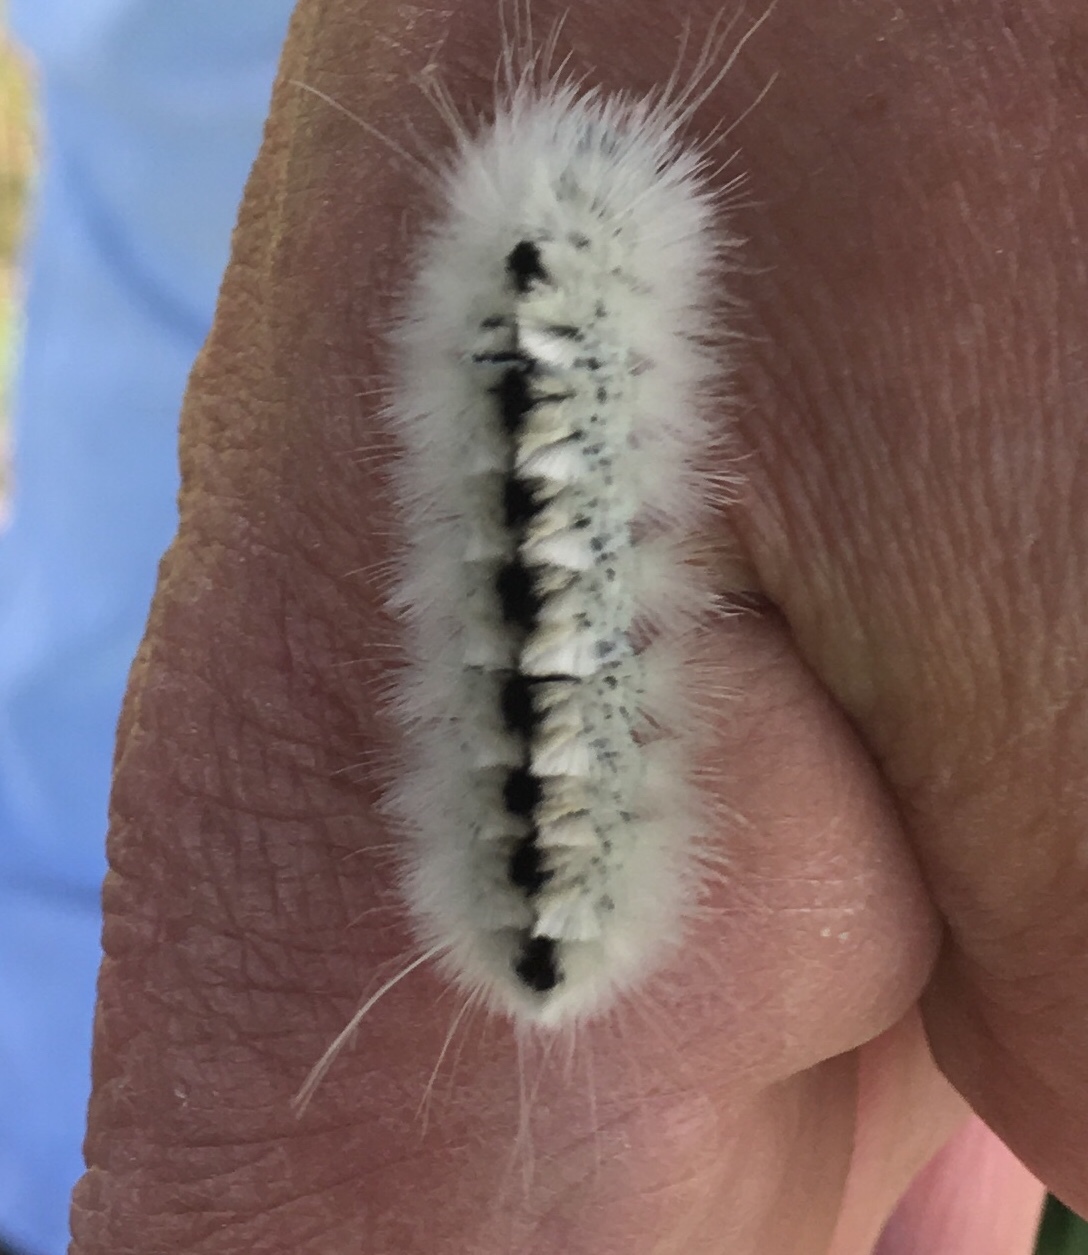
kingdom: Animalia
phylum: Arthropoda
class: Insecta
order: Lepidoptera
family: Erebidae
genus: Lophocampa
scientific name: Lophocampa caryae
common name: Hickory tussock moth
